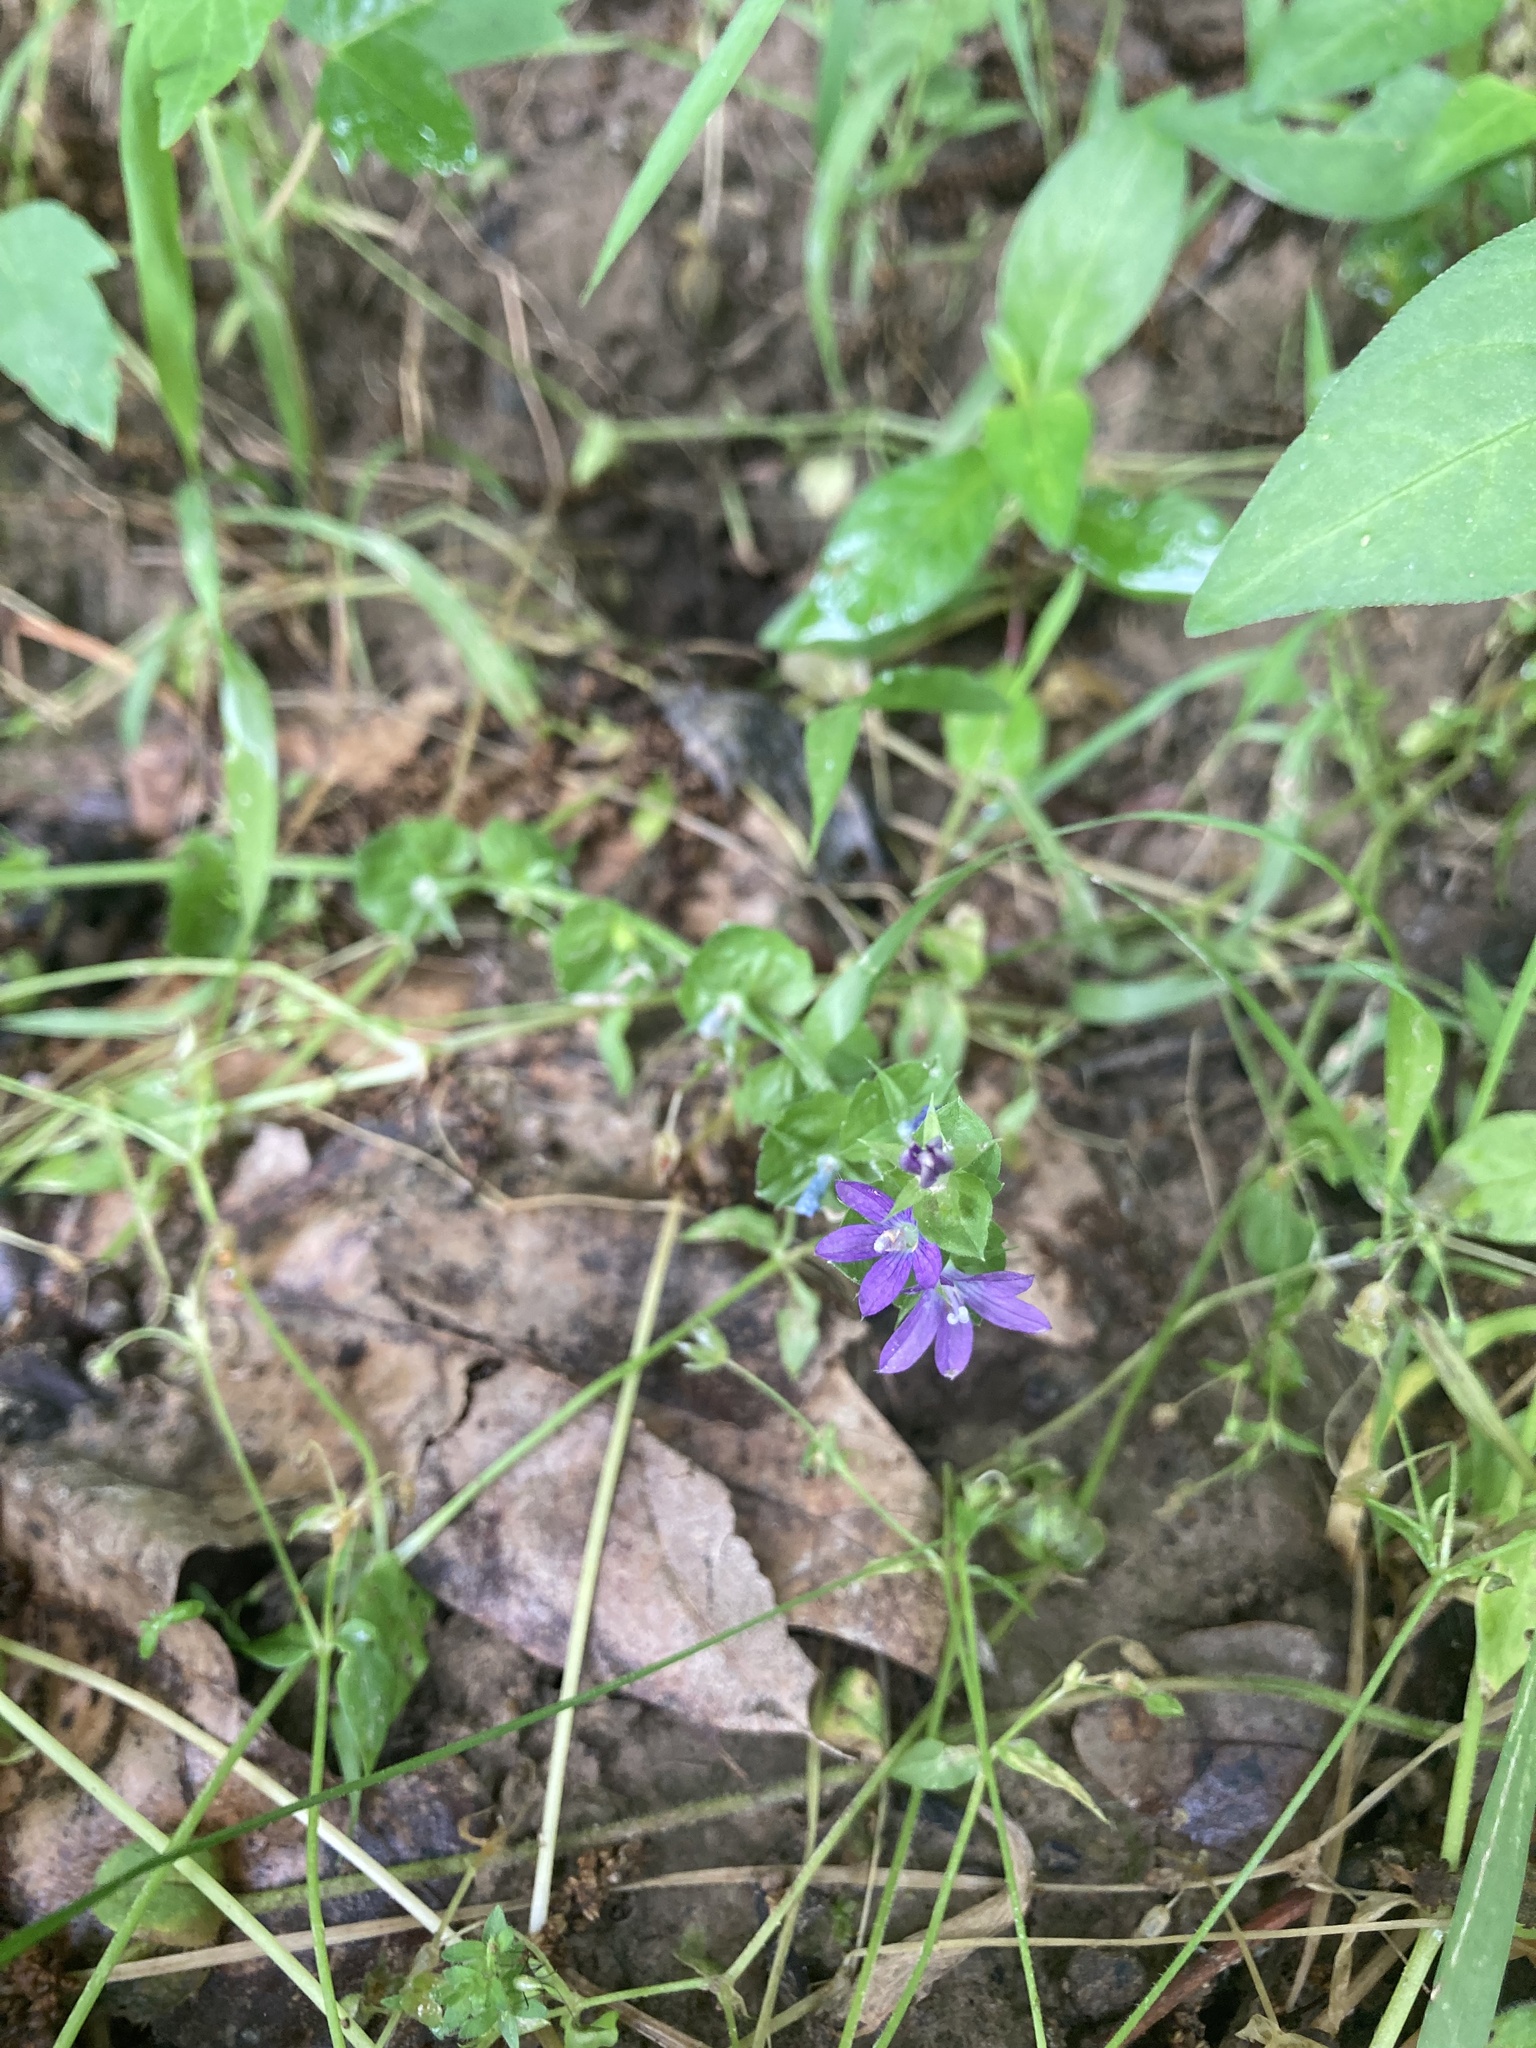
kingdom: Plantae
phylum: Tracheophyta
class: Magnoliopsida
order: Asterales
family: Campanulaceae
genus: Triodanis
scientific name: Triodanis perfoliata
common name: Clasping venus' looking-glass
